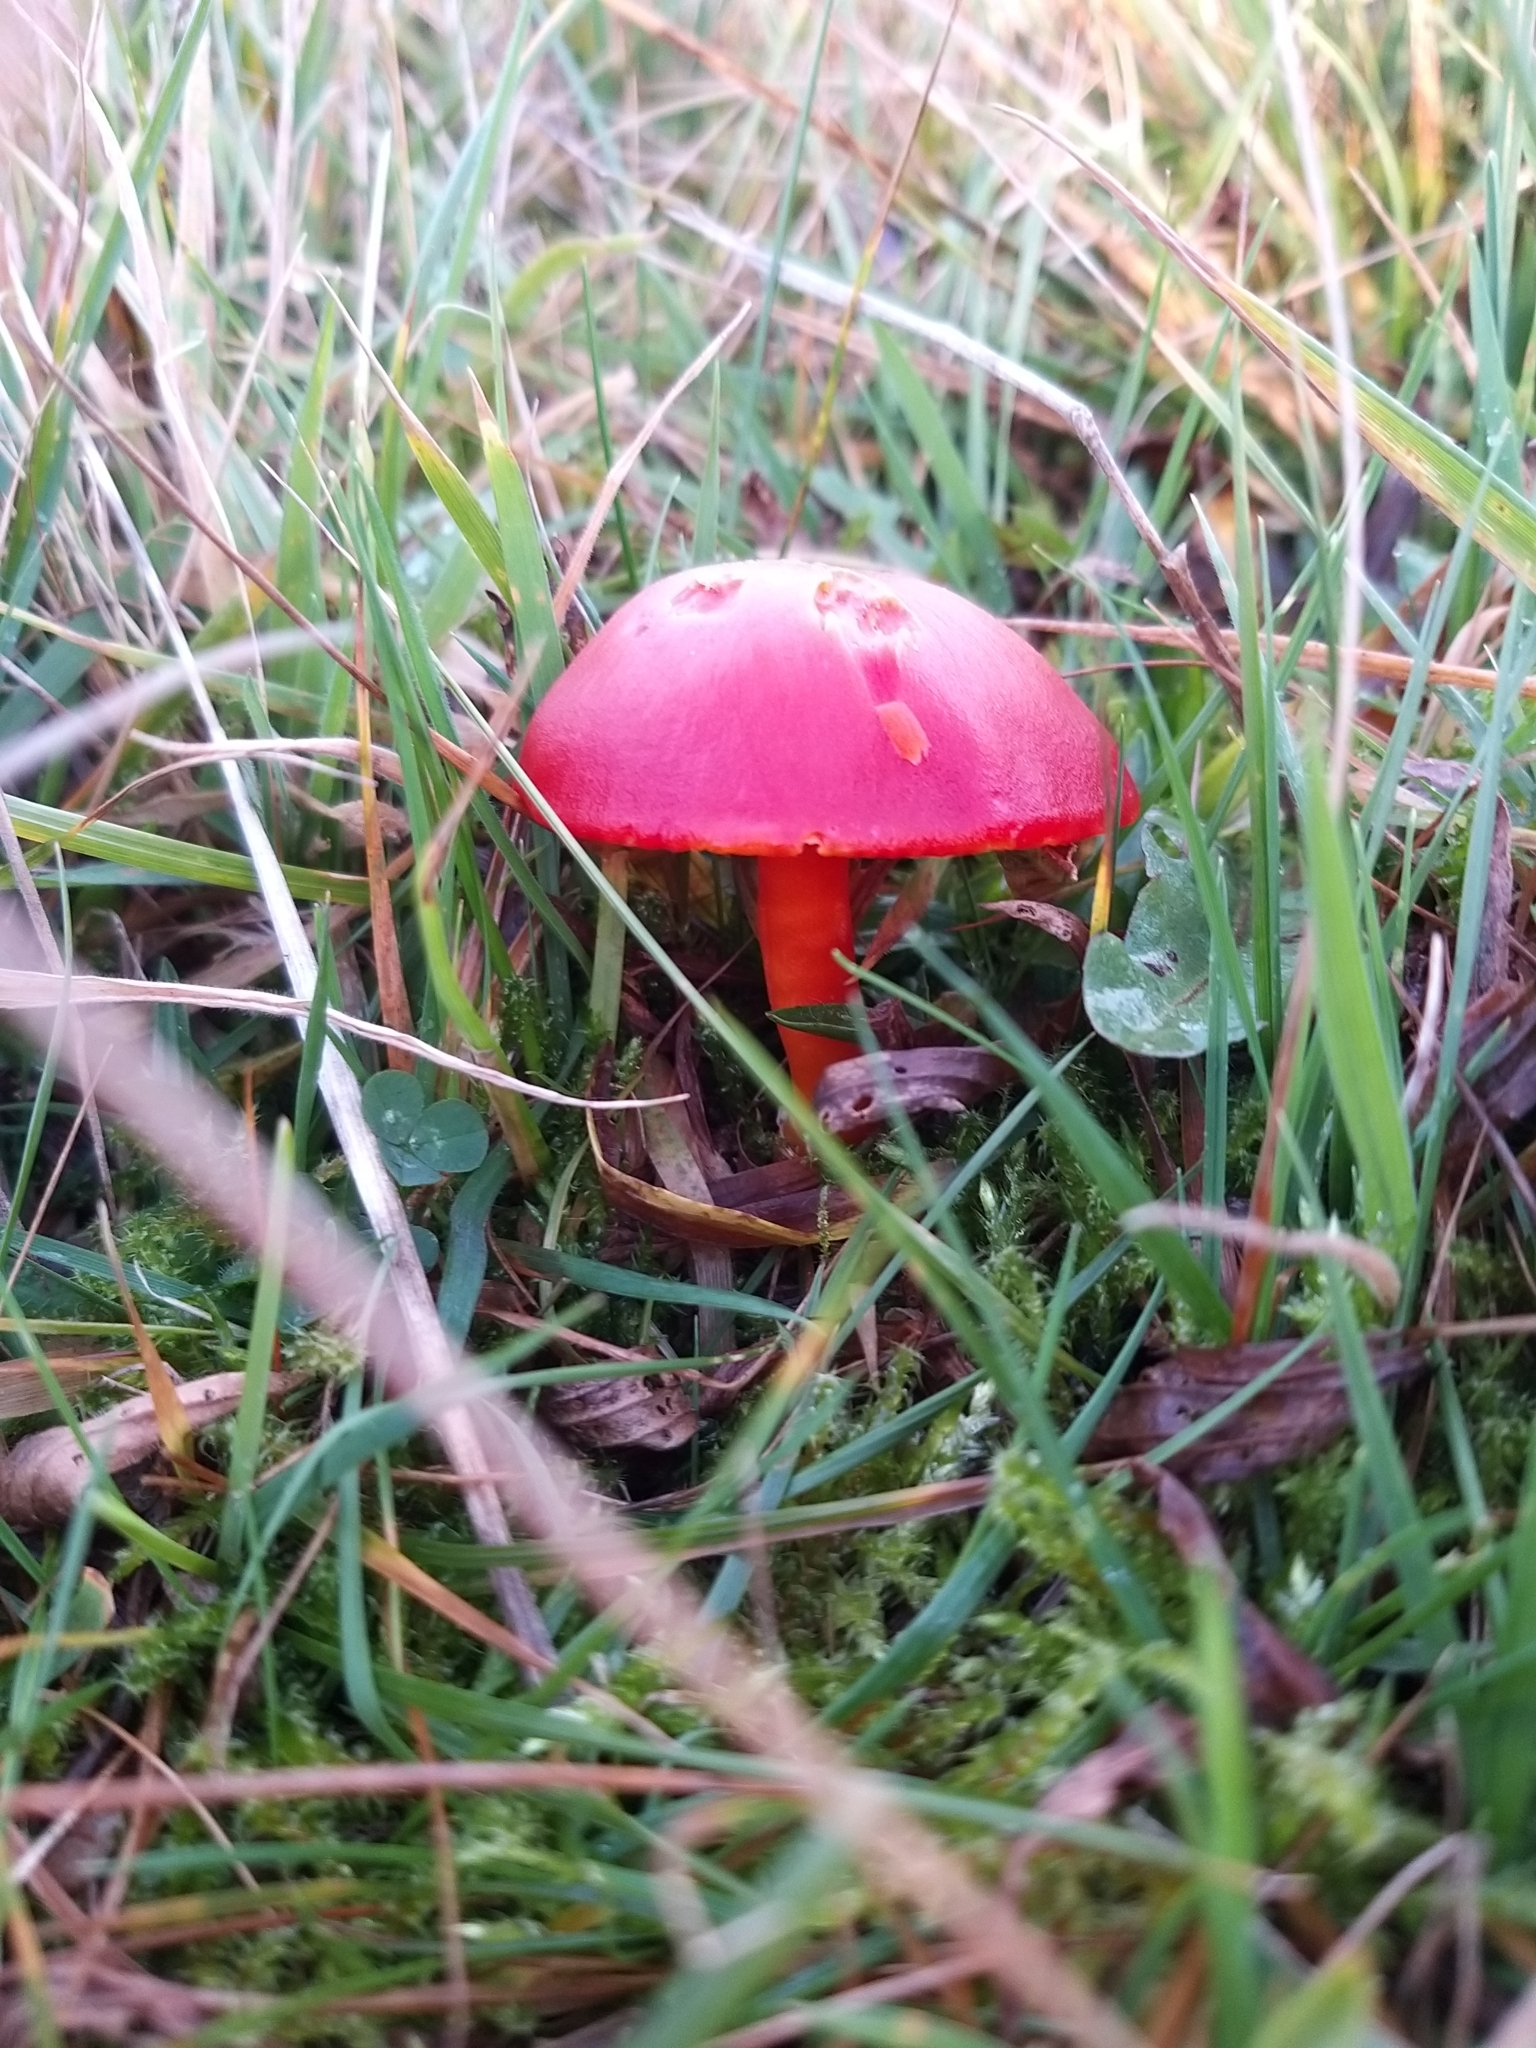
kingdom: Fungi
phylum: Basidiomycota
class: Agaricomycetes
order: Agaricales
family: Hygrophoraceae
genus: Hygrocybe
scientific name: Hygrocybe coccinea
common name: Scarlet hood
